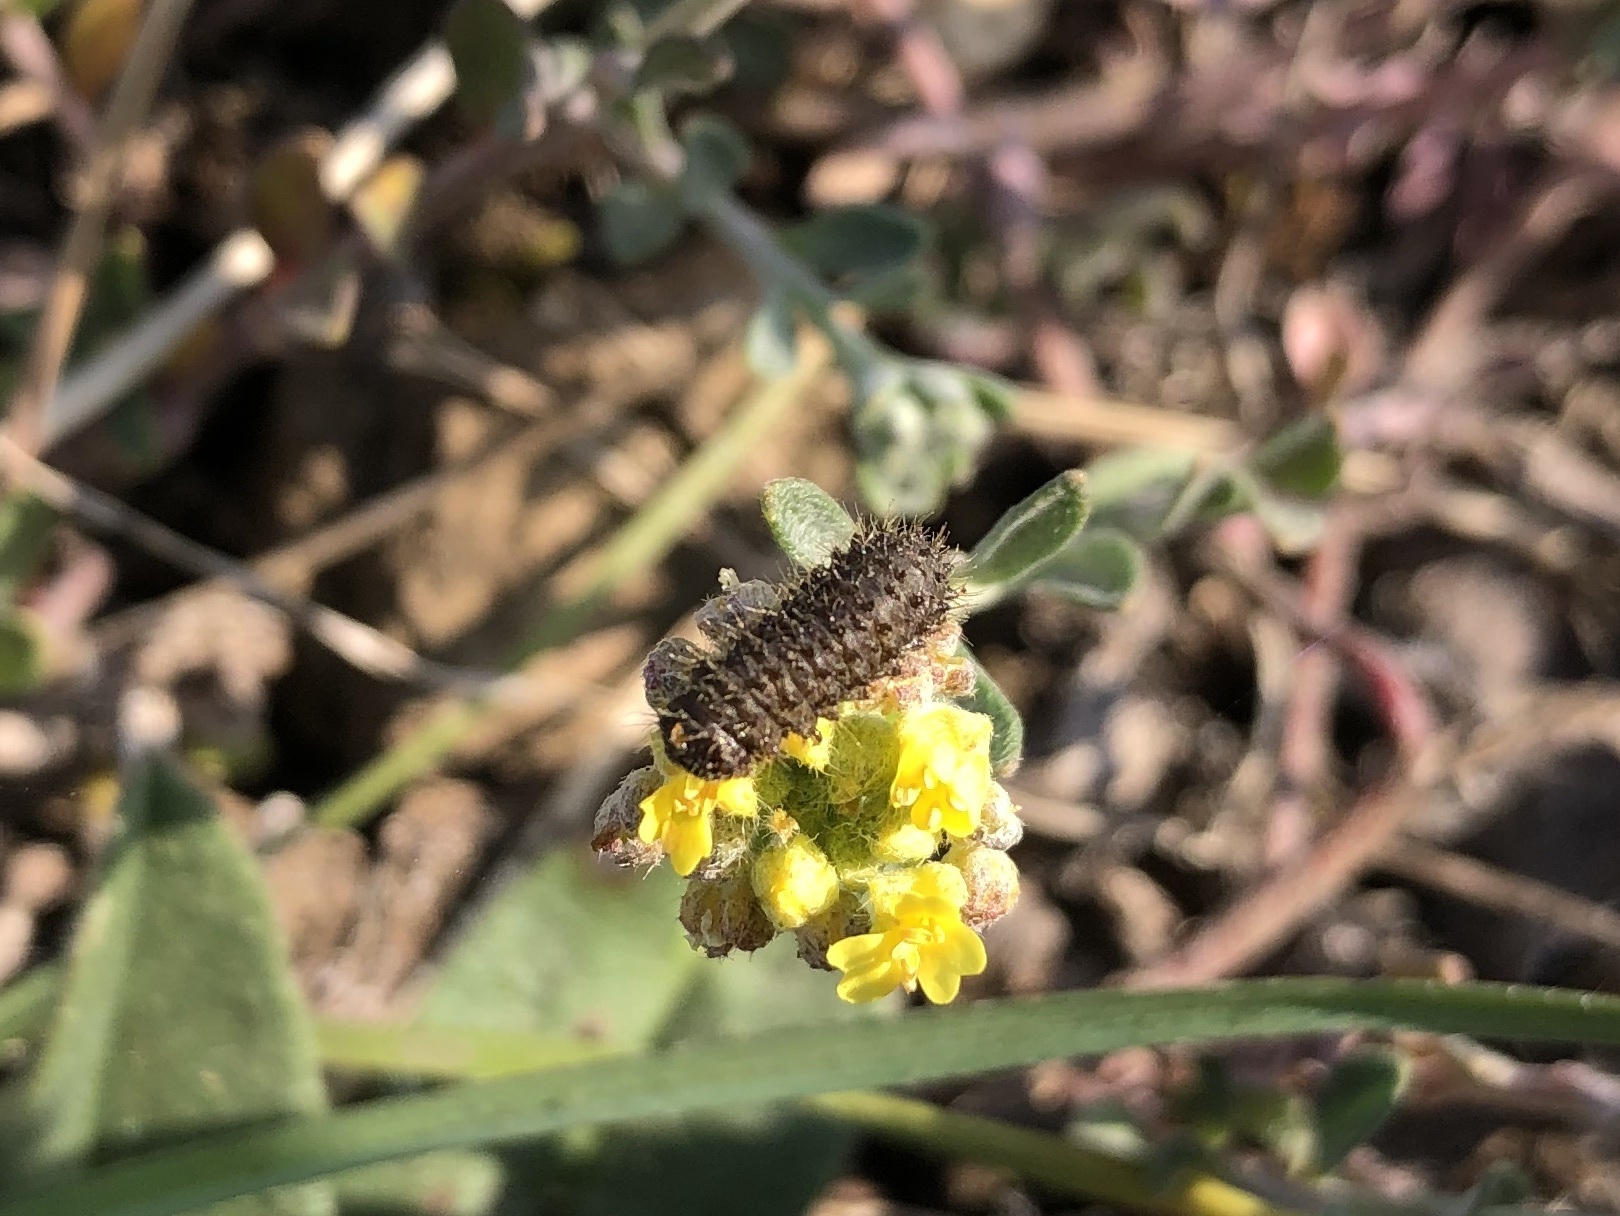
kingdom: Animalia
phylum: Arthropoda
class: Insecta
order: Coleoptera
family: Chrysomelidae
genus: Galeruca
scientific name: Galeruca tanaceti
